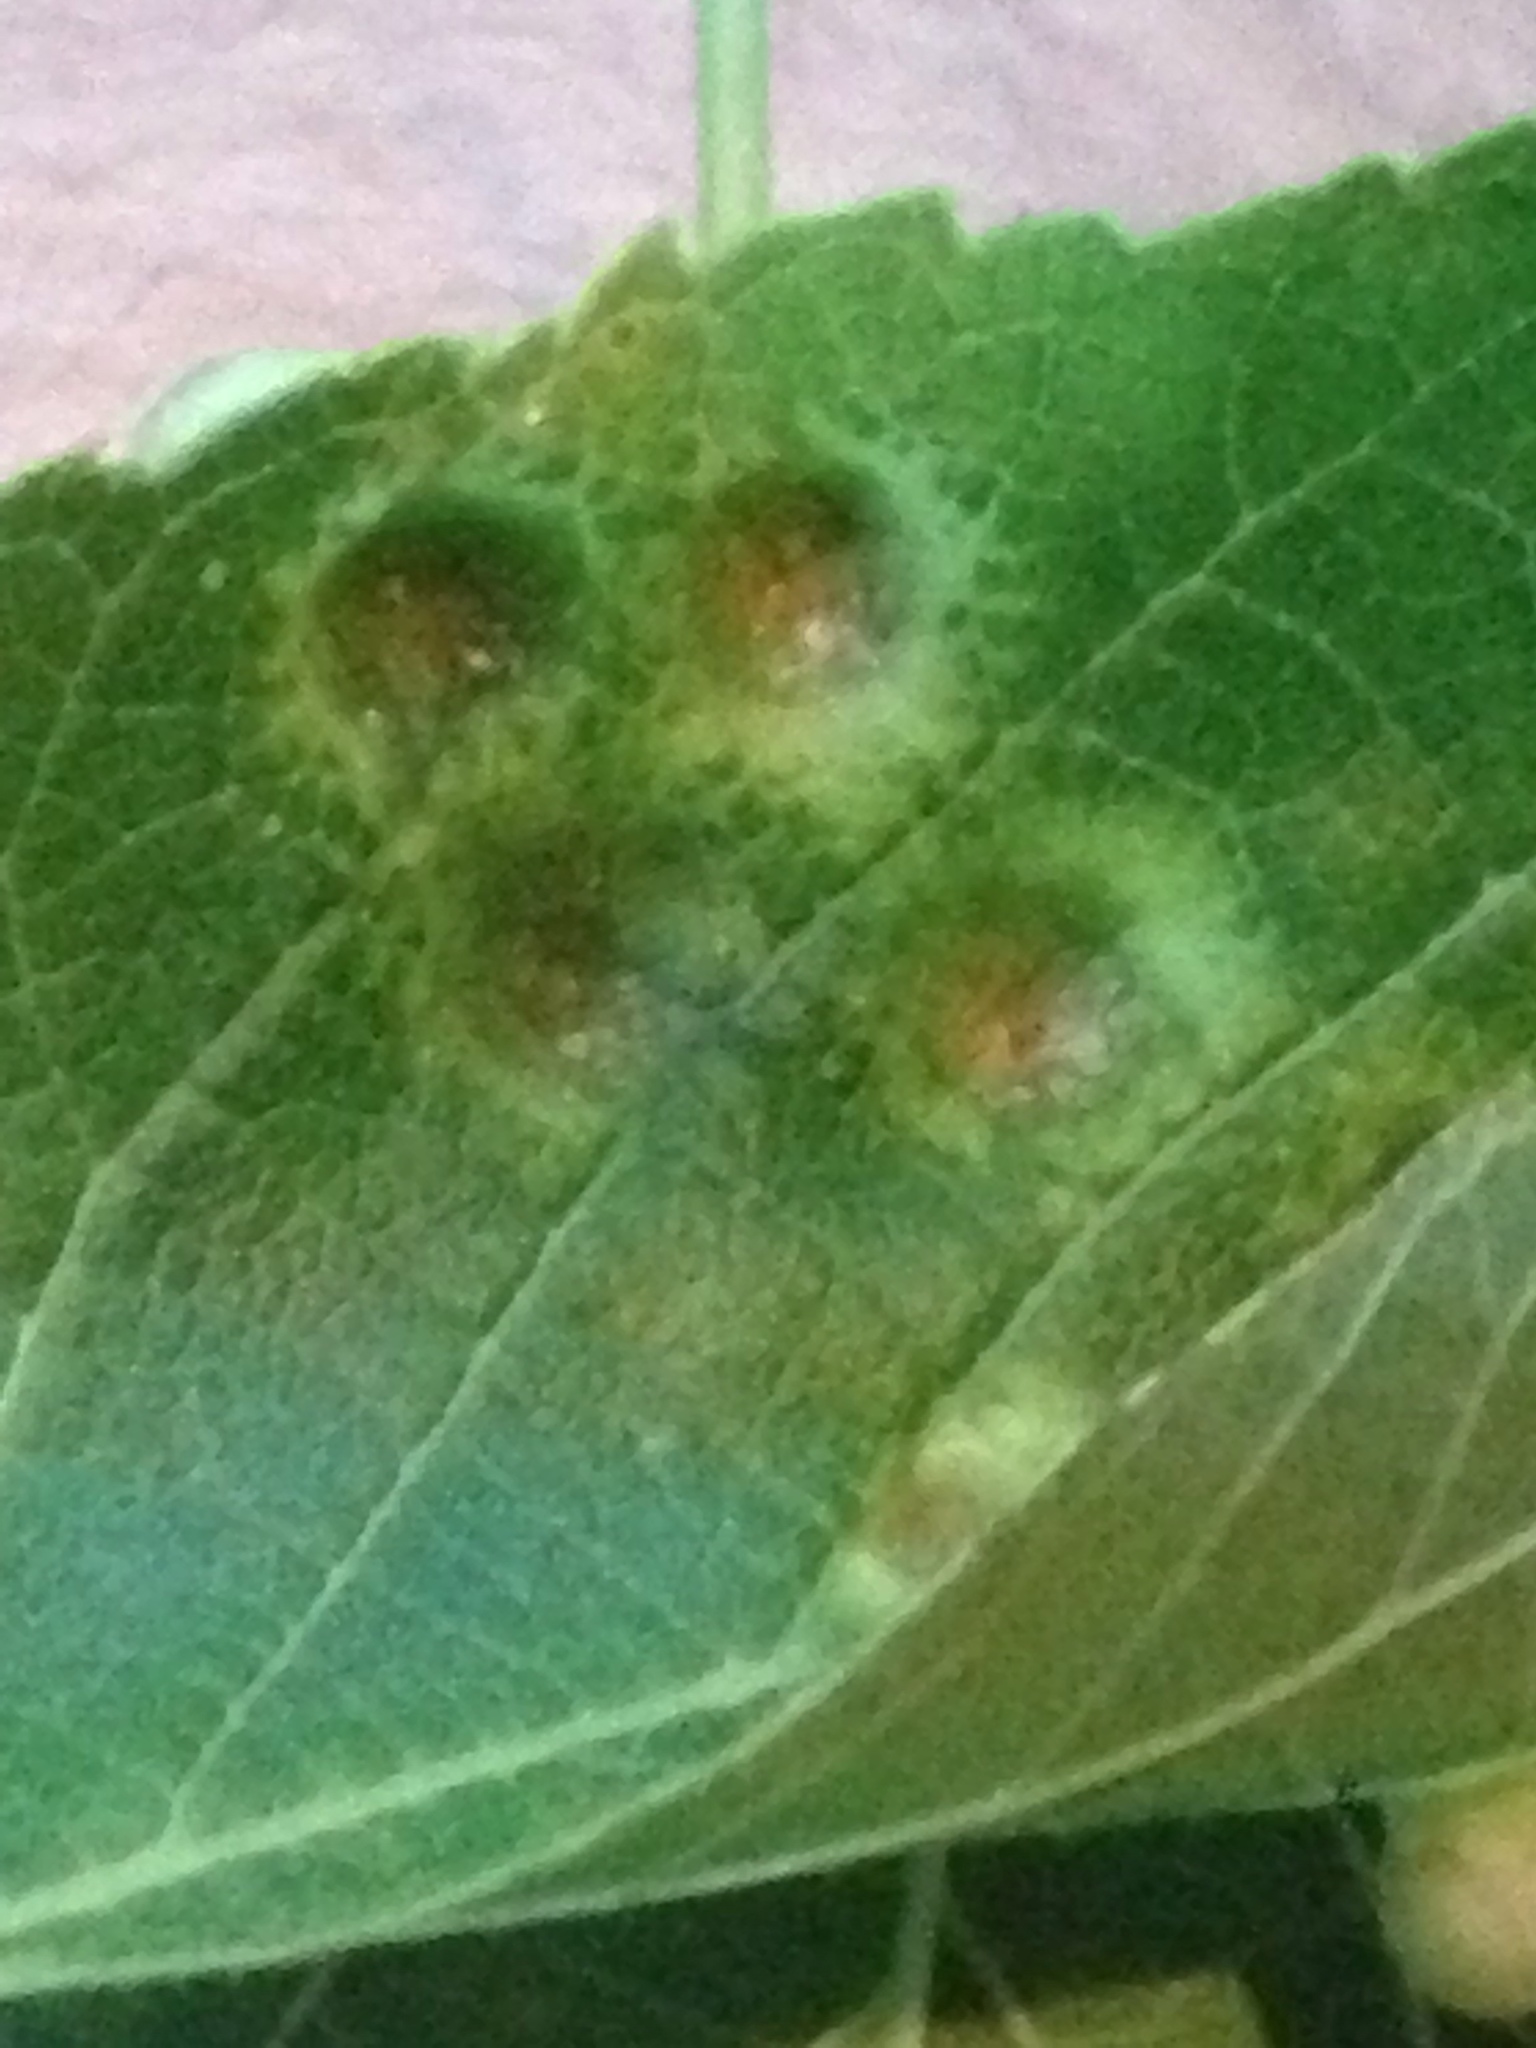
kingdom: Animalia
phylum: Arthropoda
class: Insecta
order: Hemiptera
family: Aphalaridae
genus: Pachypsylla
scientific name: Pachypsylla celtidismamma
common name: Hackberry nipplegall psyllid
